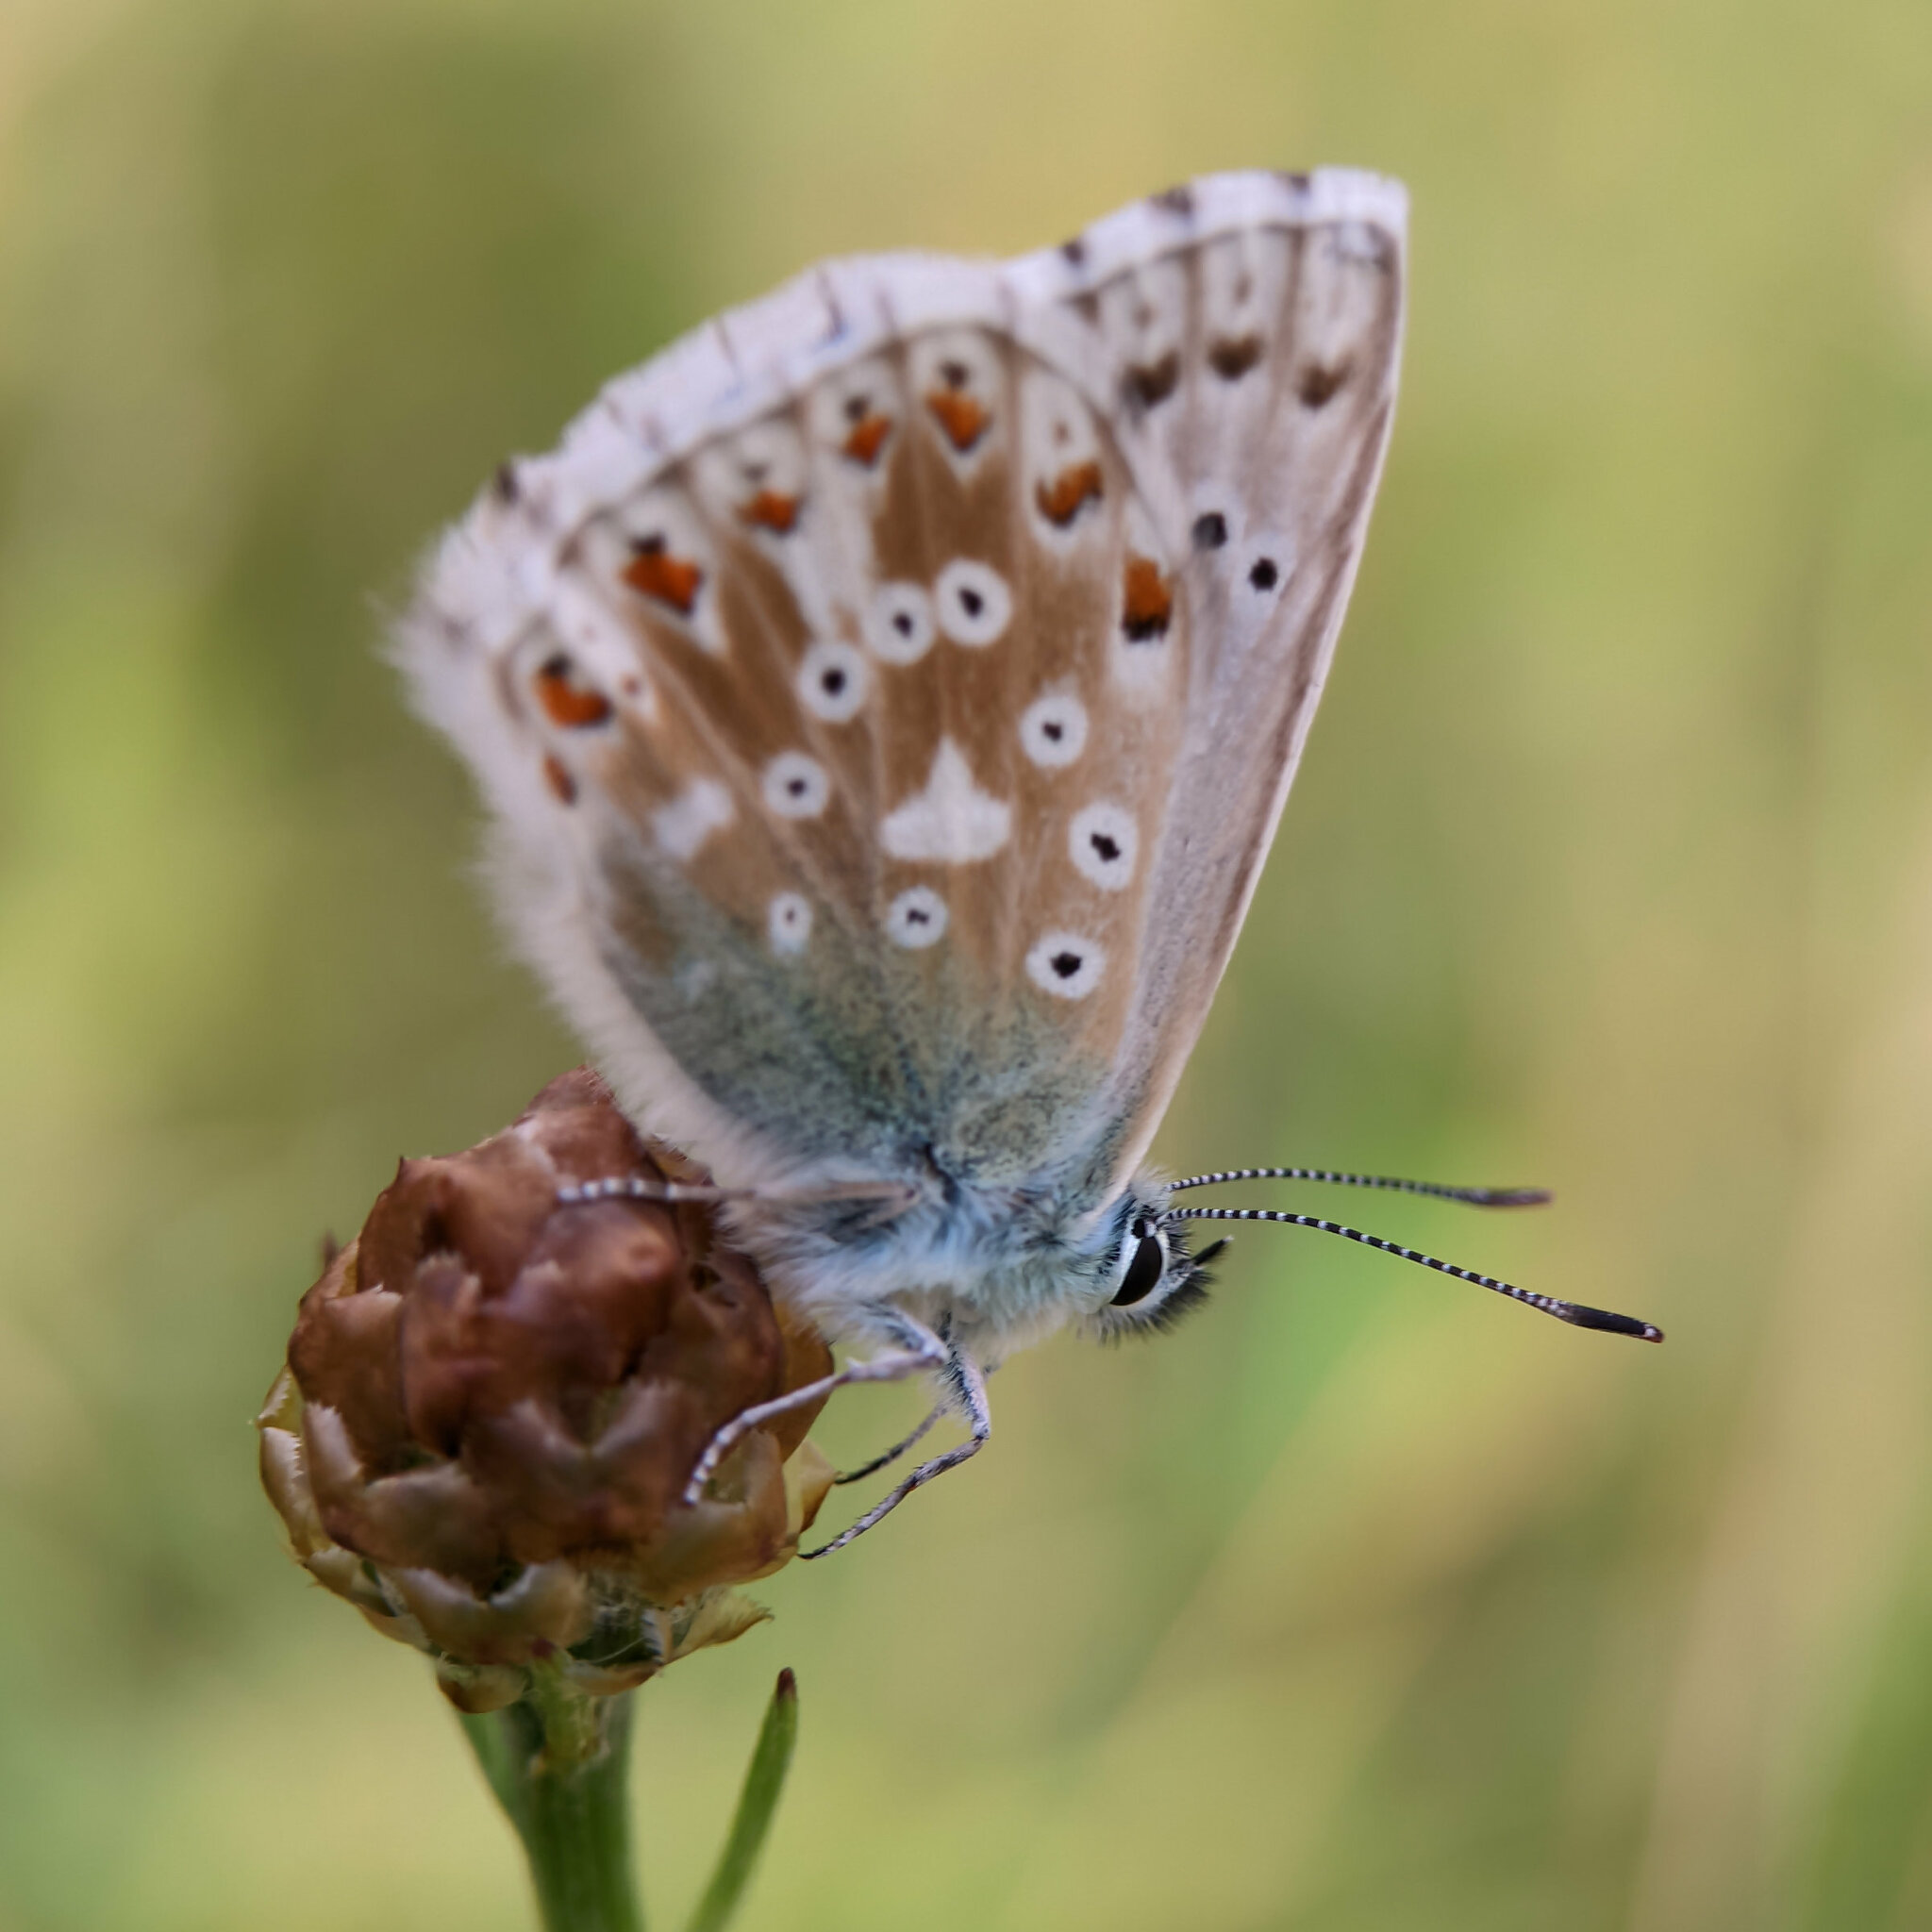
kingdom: Animalia
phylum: Arthropoda
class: Insecta
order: Lepidoptera
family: Lycaenidae
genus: Lysandra
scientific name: Lysandra coridon
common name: Chalkhill blue
